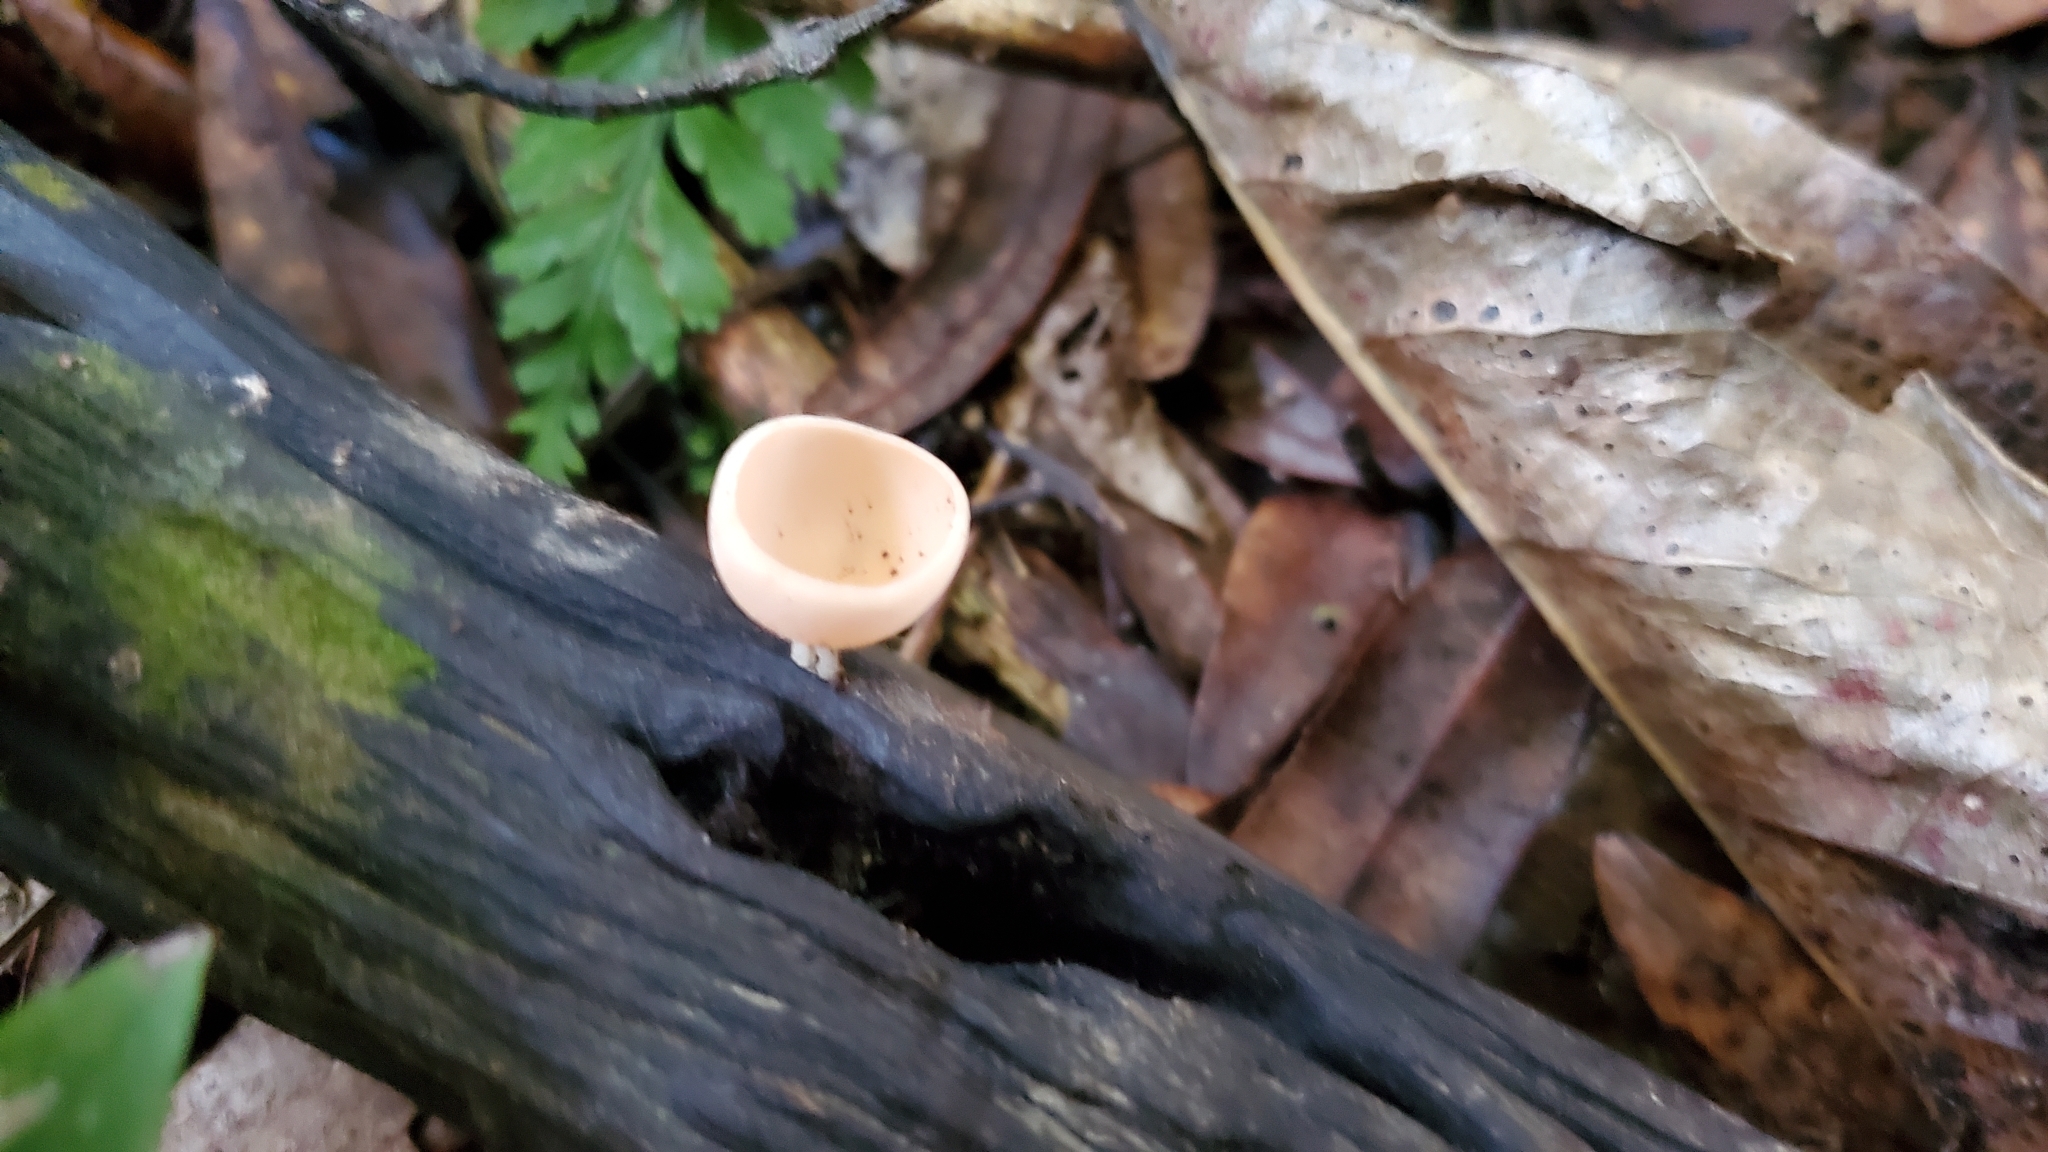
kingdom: Fungi
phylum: Ascomycota
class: Pezizomycetes
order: Pezizales
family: Sarcoscyphaceae
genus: Cookeina
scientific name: Cookeina colensoi
